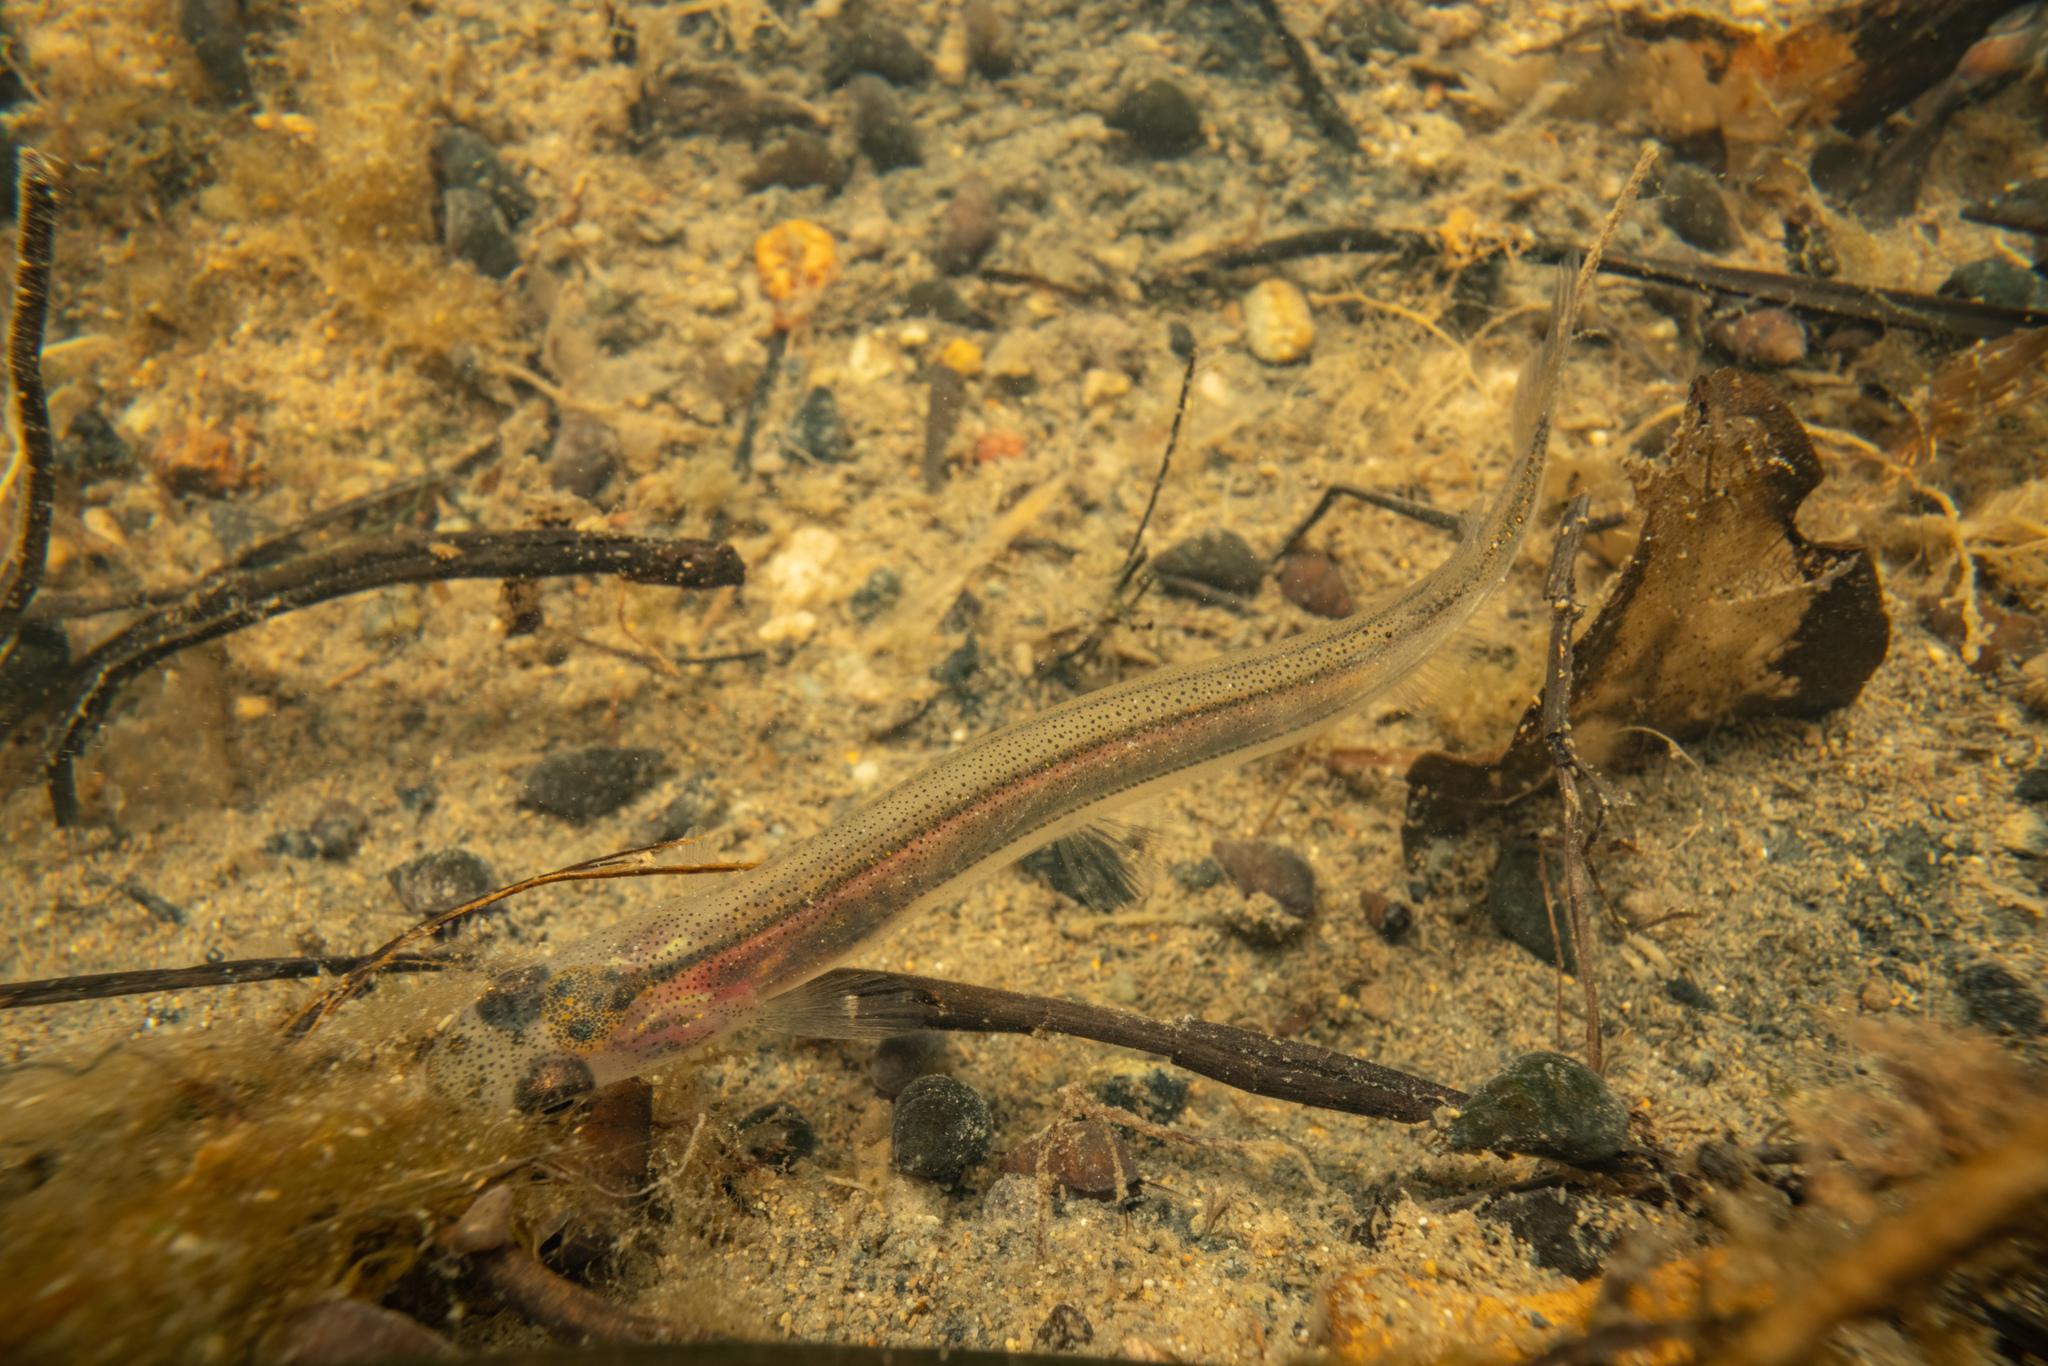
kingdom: Animalia
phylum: Chordata
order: Osmeriformes
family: Galaxiidae
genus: Galaxias
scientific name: Galaxias fasciatus
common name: Banded kokopu
